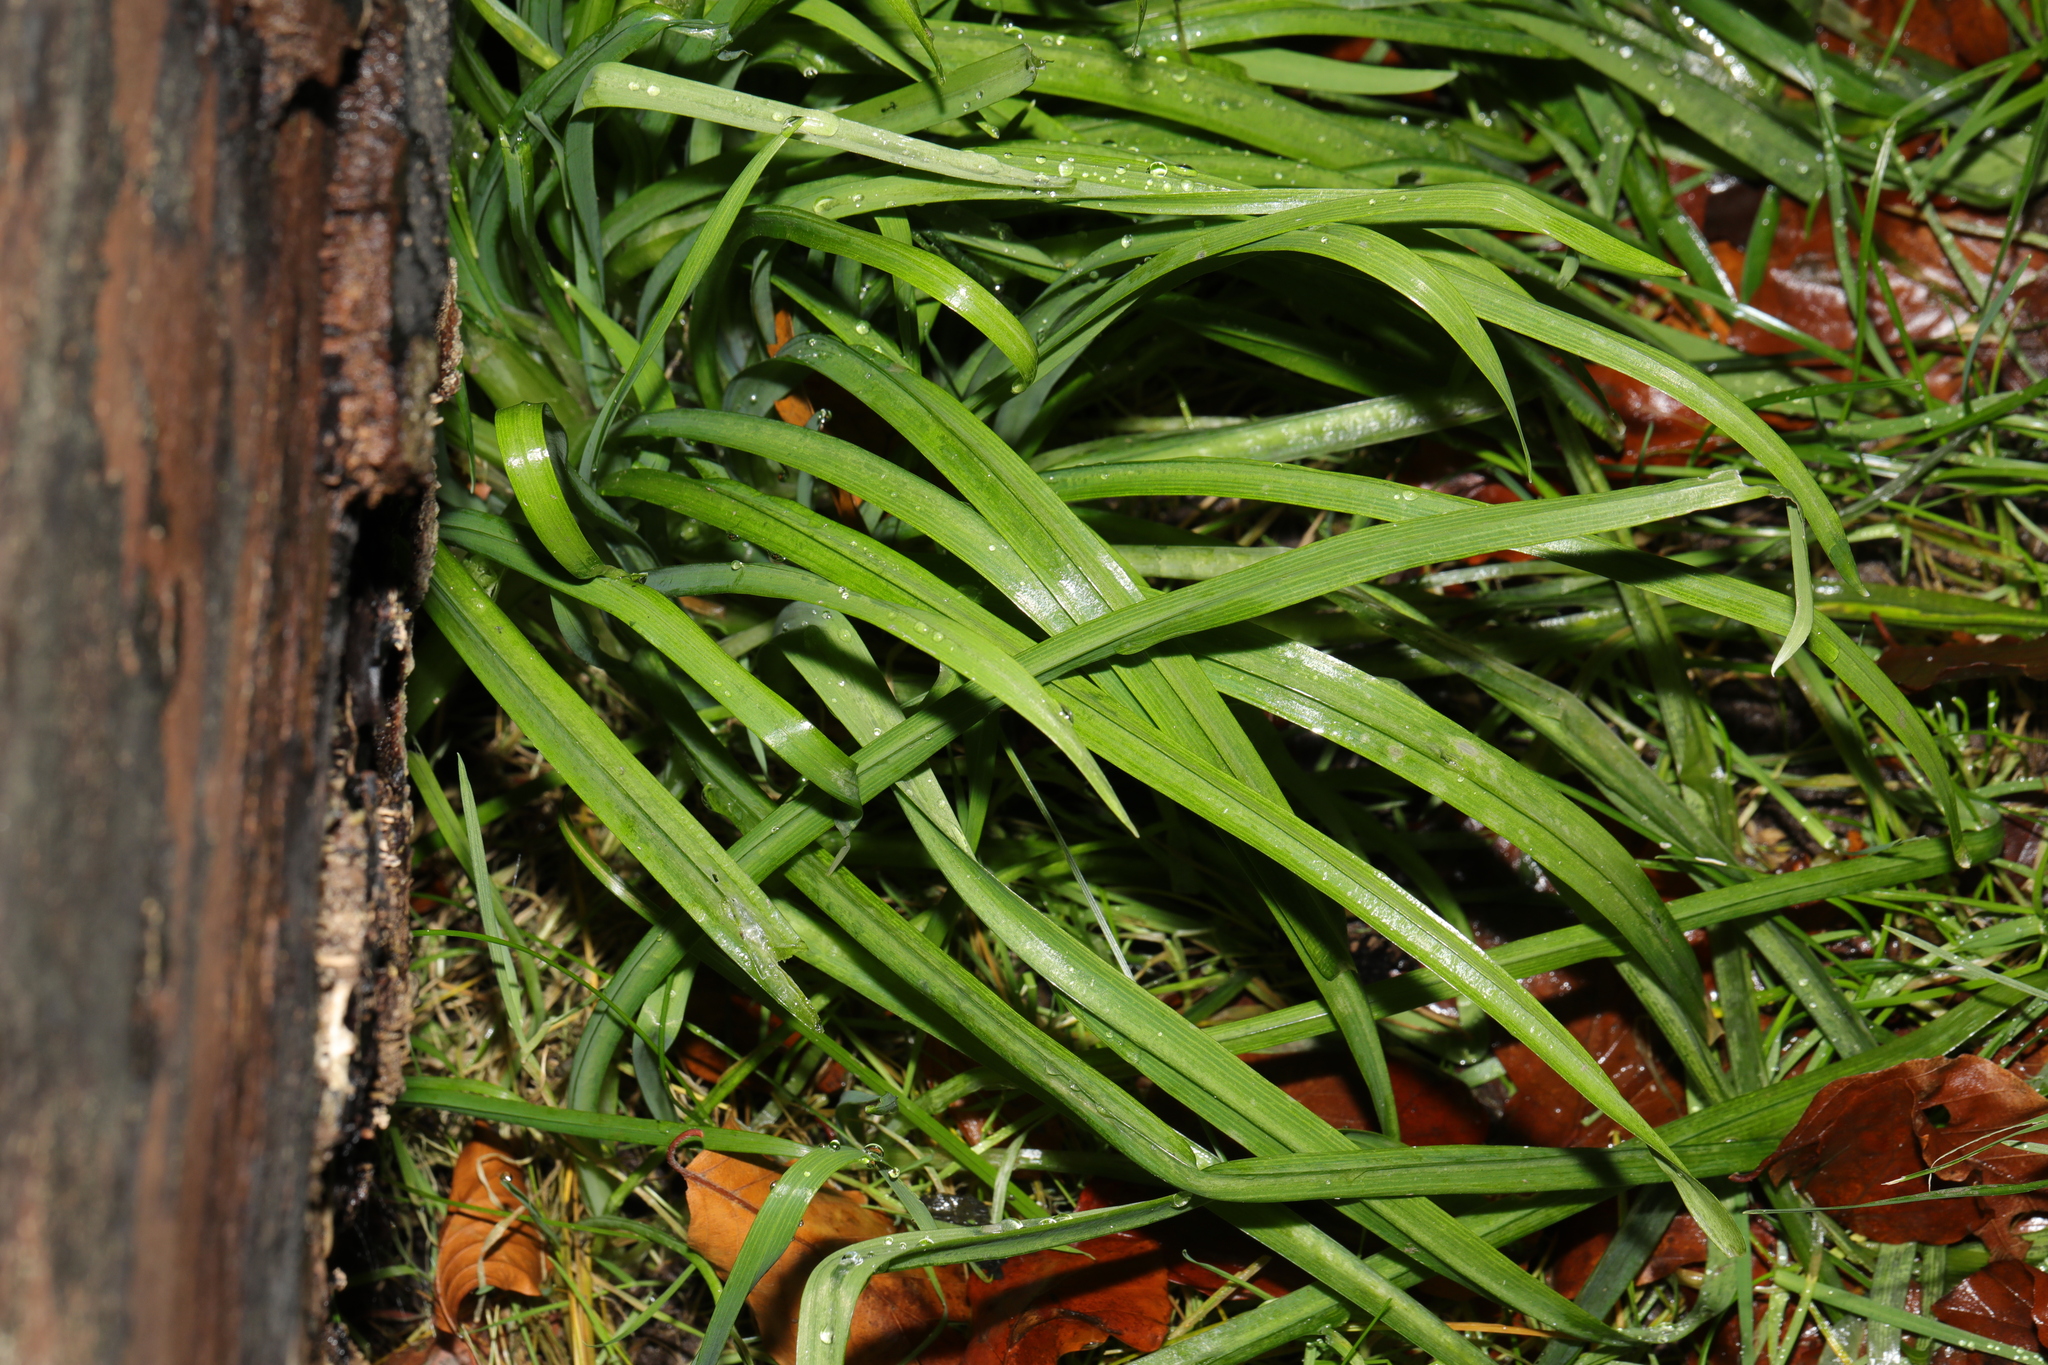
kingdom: Plantae
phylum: Tracheophyta
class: Liliopsida
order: Asparagales
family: Amaryllidaceae
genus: Allium
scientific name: Allium triquetrum
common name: Three-cornered garlic
